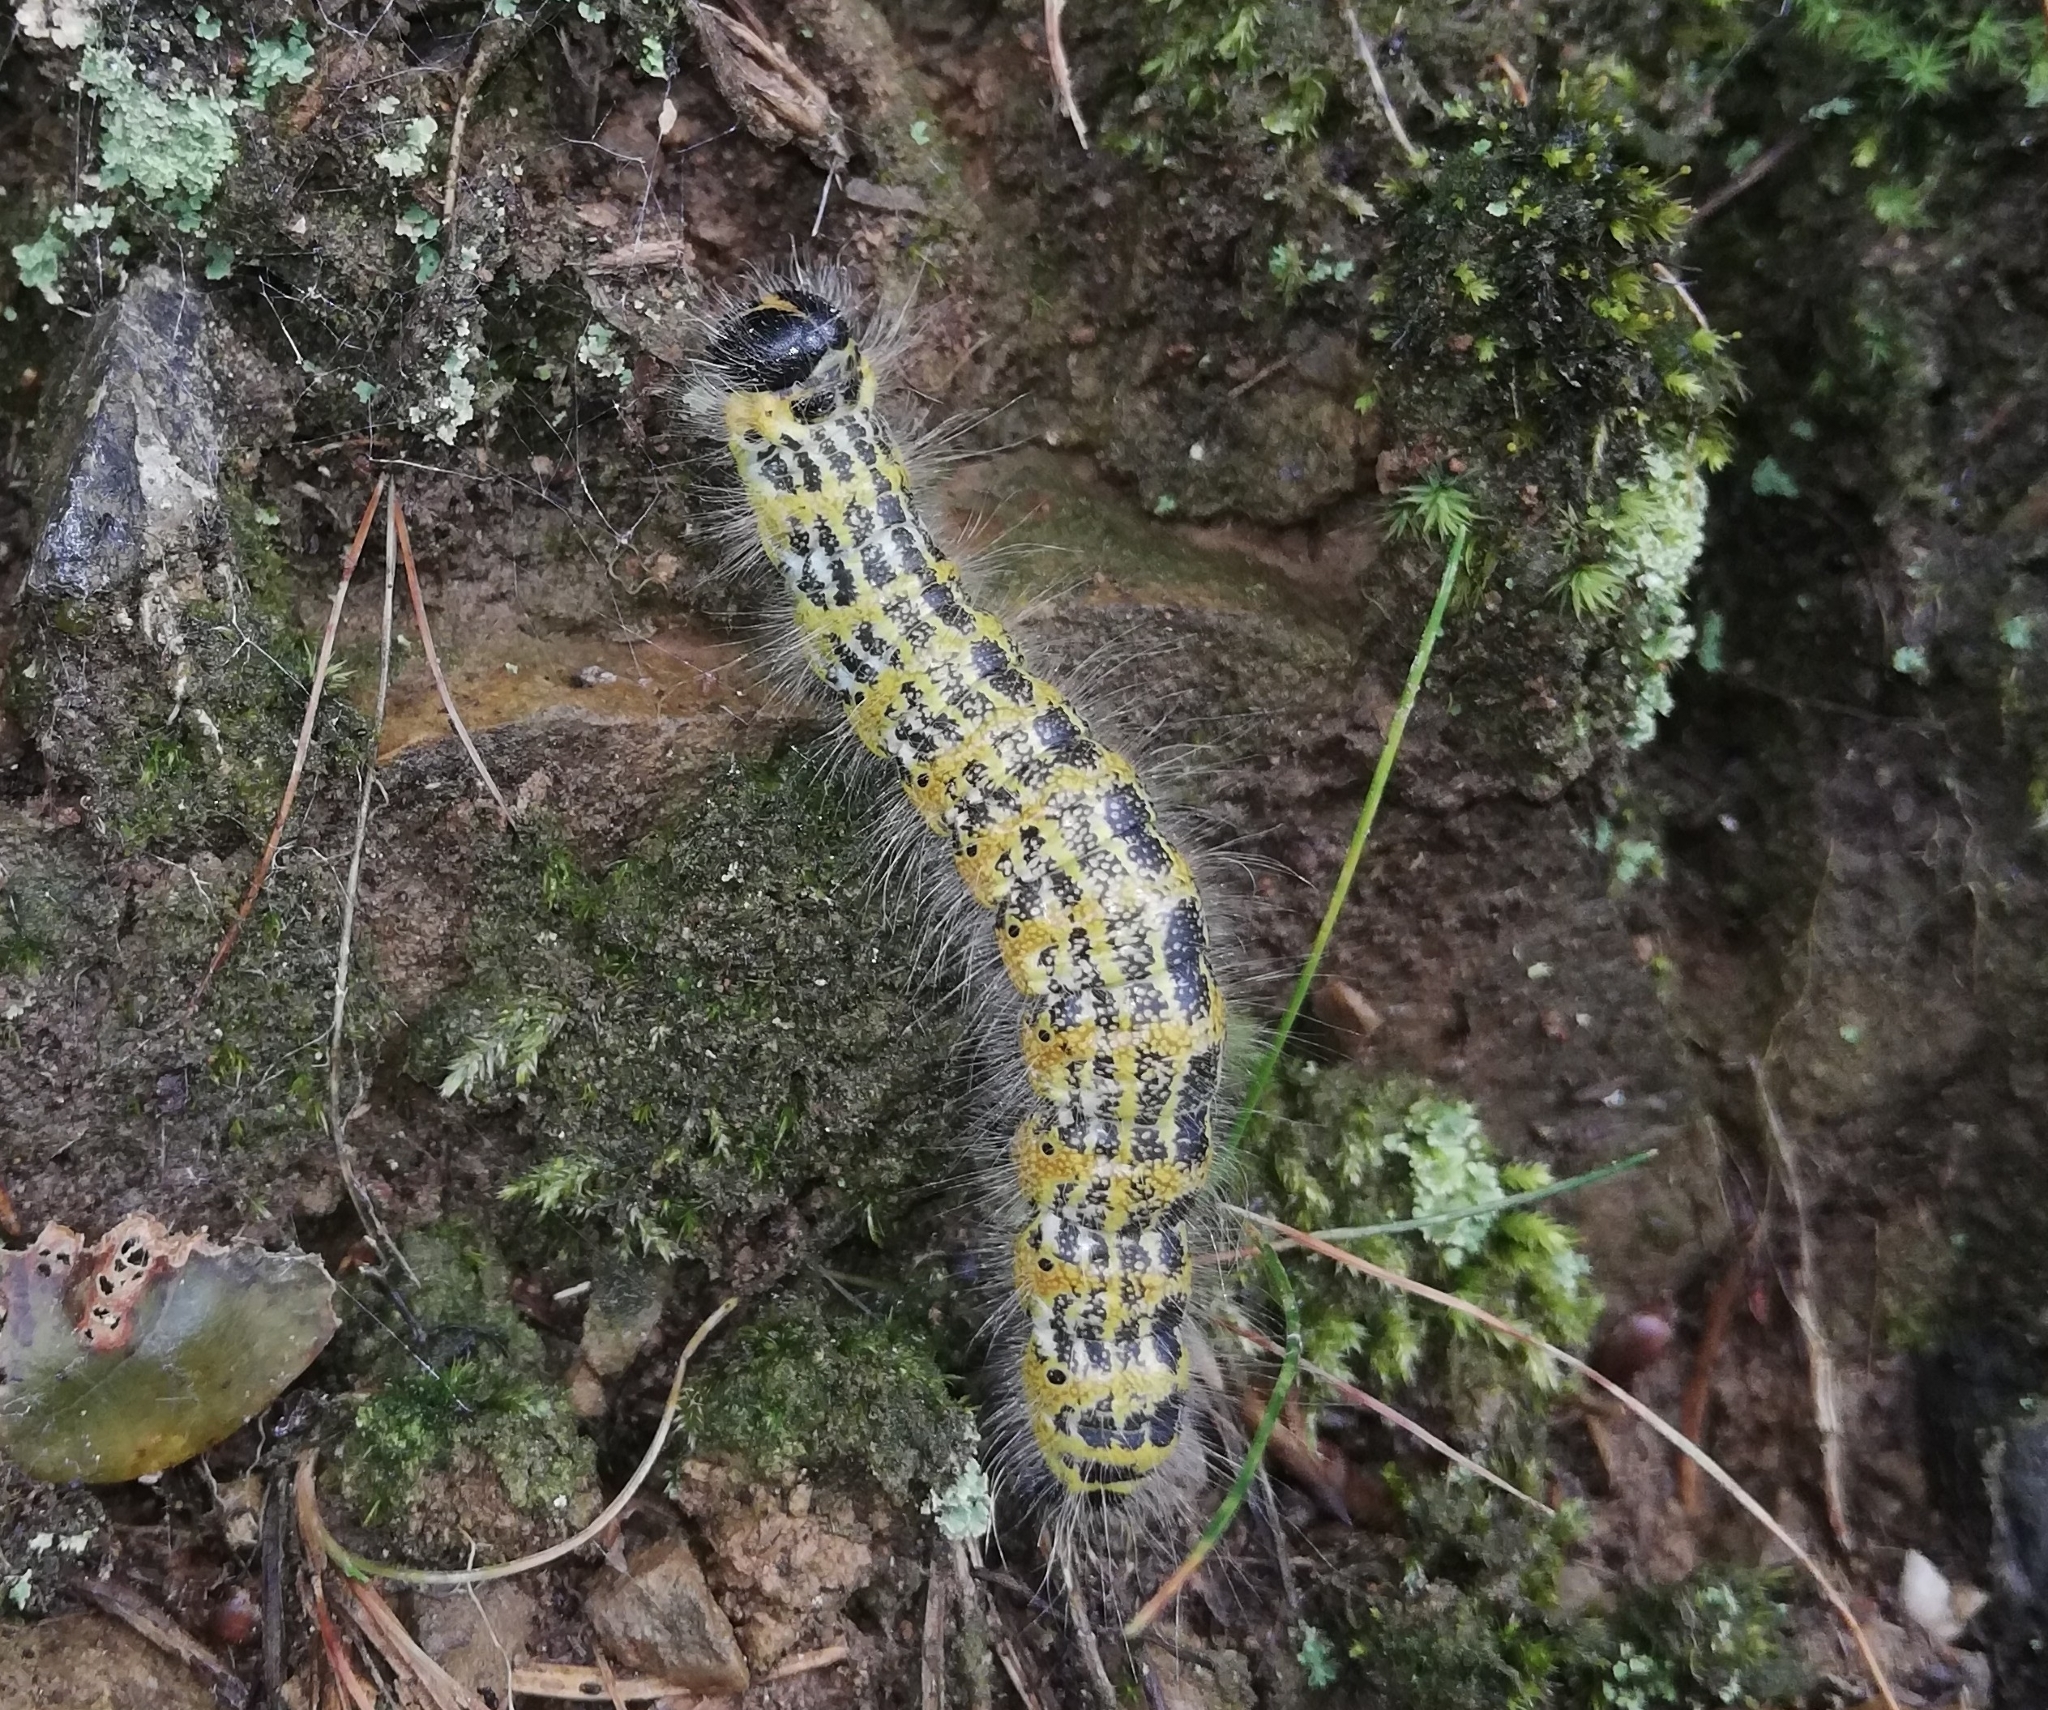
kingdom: Animalia
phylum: Arthropoda
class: Insecta
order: Lepidoptera
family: Notodontidae
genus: Phalera
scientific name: Phalera bucephala
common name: Buff-tip
